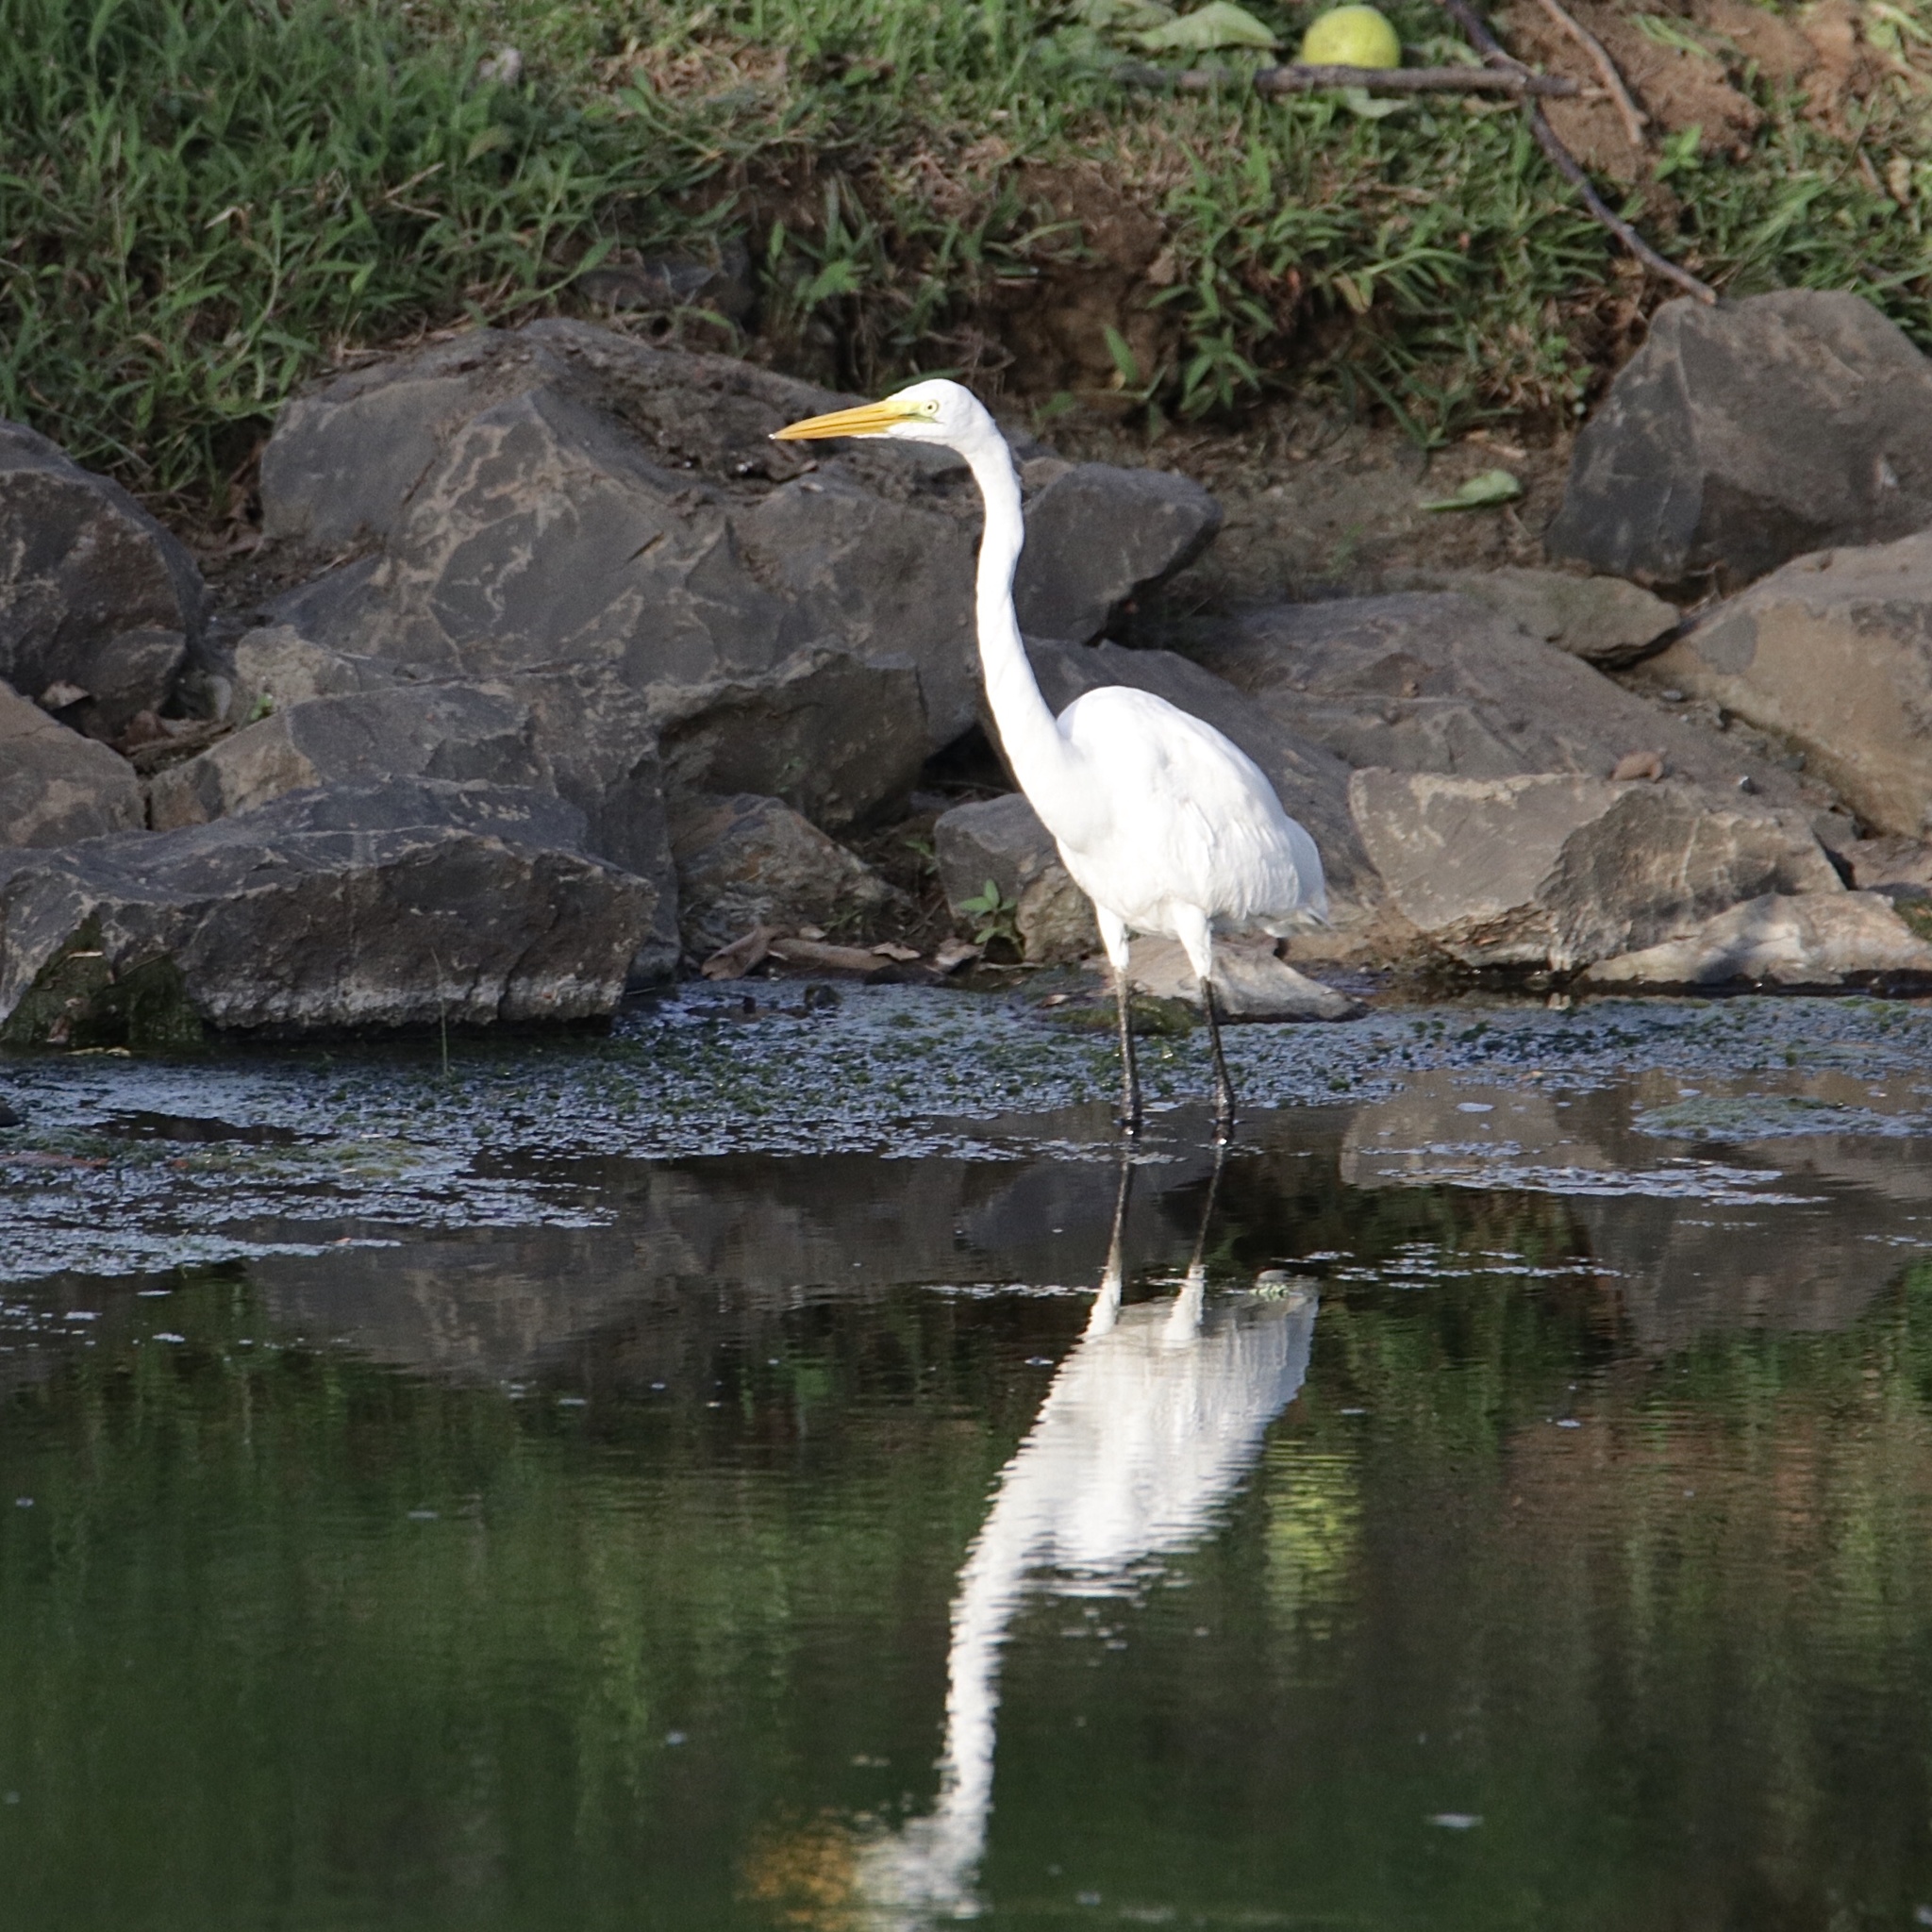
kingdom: Animalia
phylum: Chordata
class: Aves
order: Pelecaniformes
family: Ardeidae
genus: Ardea
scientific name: Ardea alba
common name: Great egret
